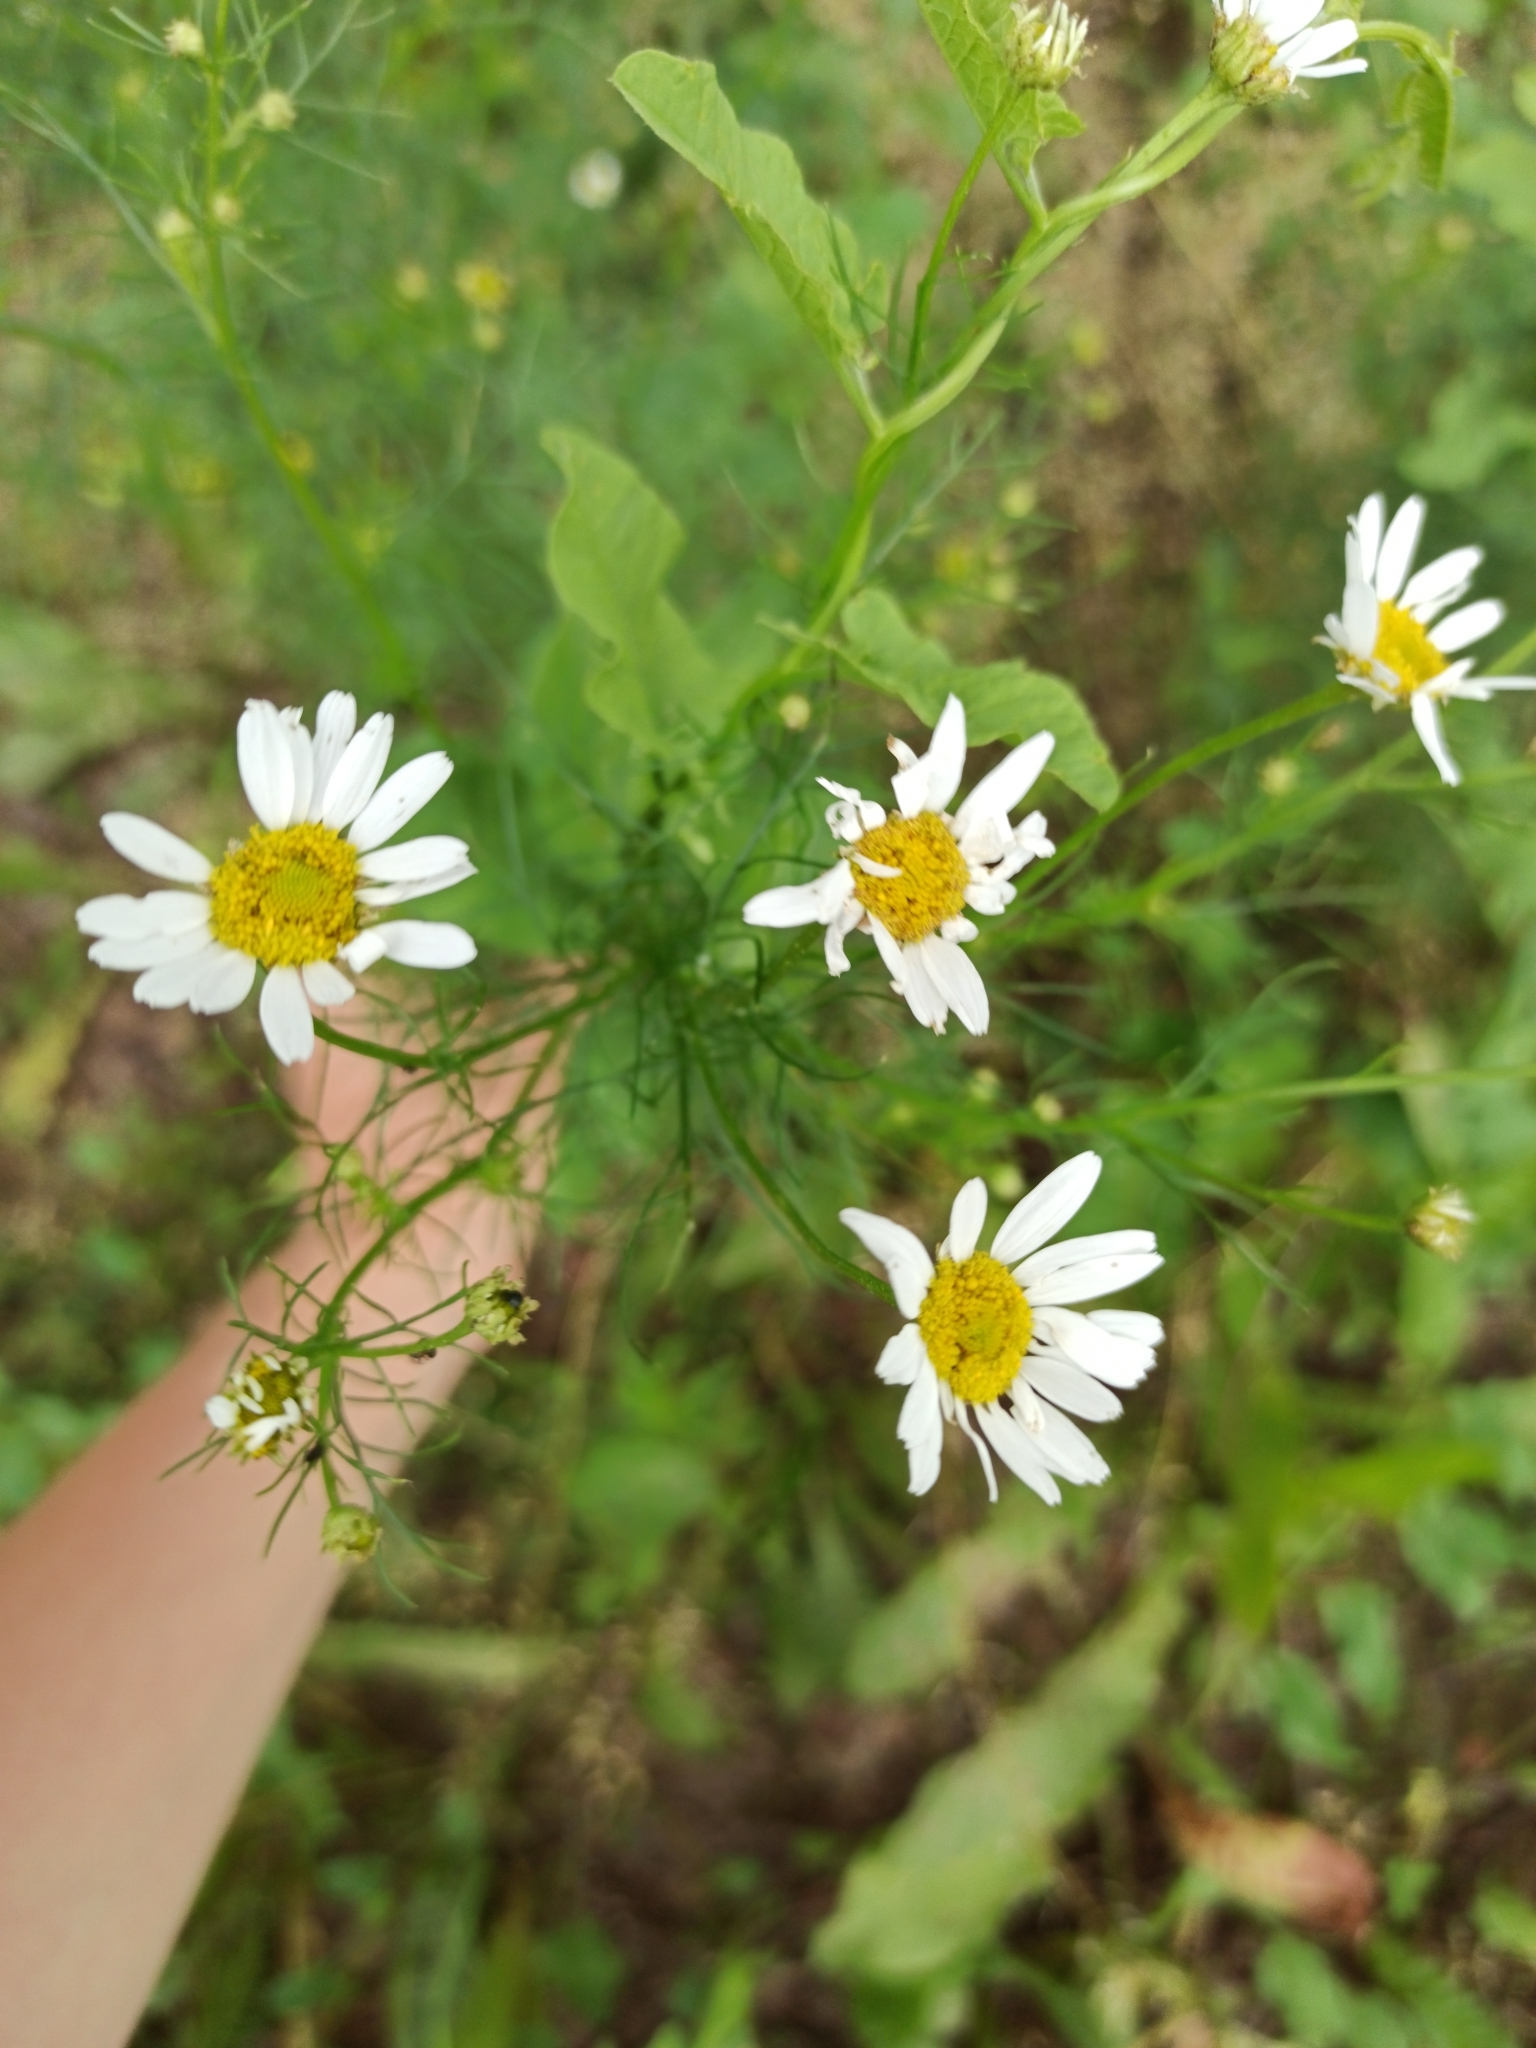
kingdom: Plantae
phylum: Tracheophyta
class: Magnoliopsida
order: Asterales
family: Asteraceae
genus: Tripleurospermum
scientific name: Tripleurospermum inodorum
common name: Scentless mayweed
